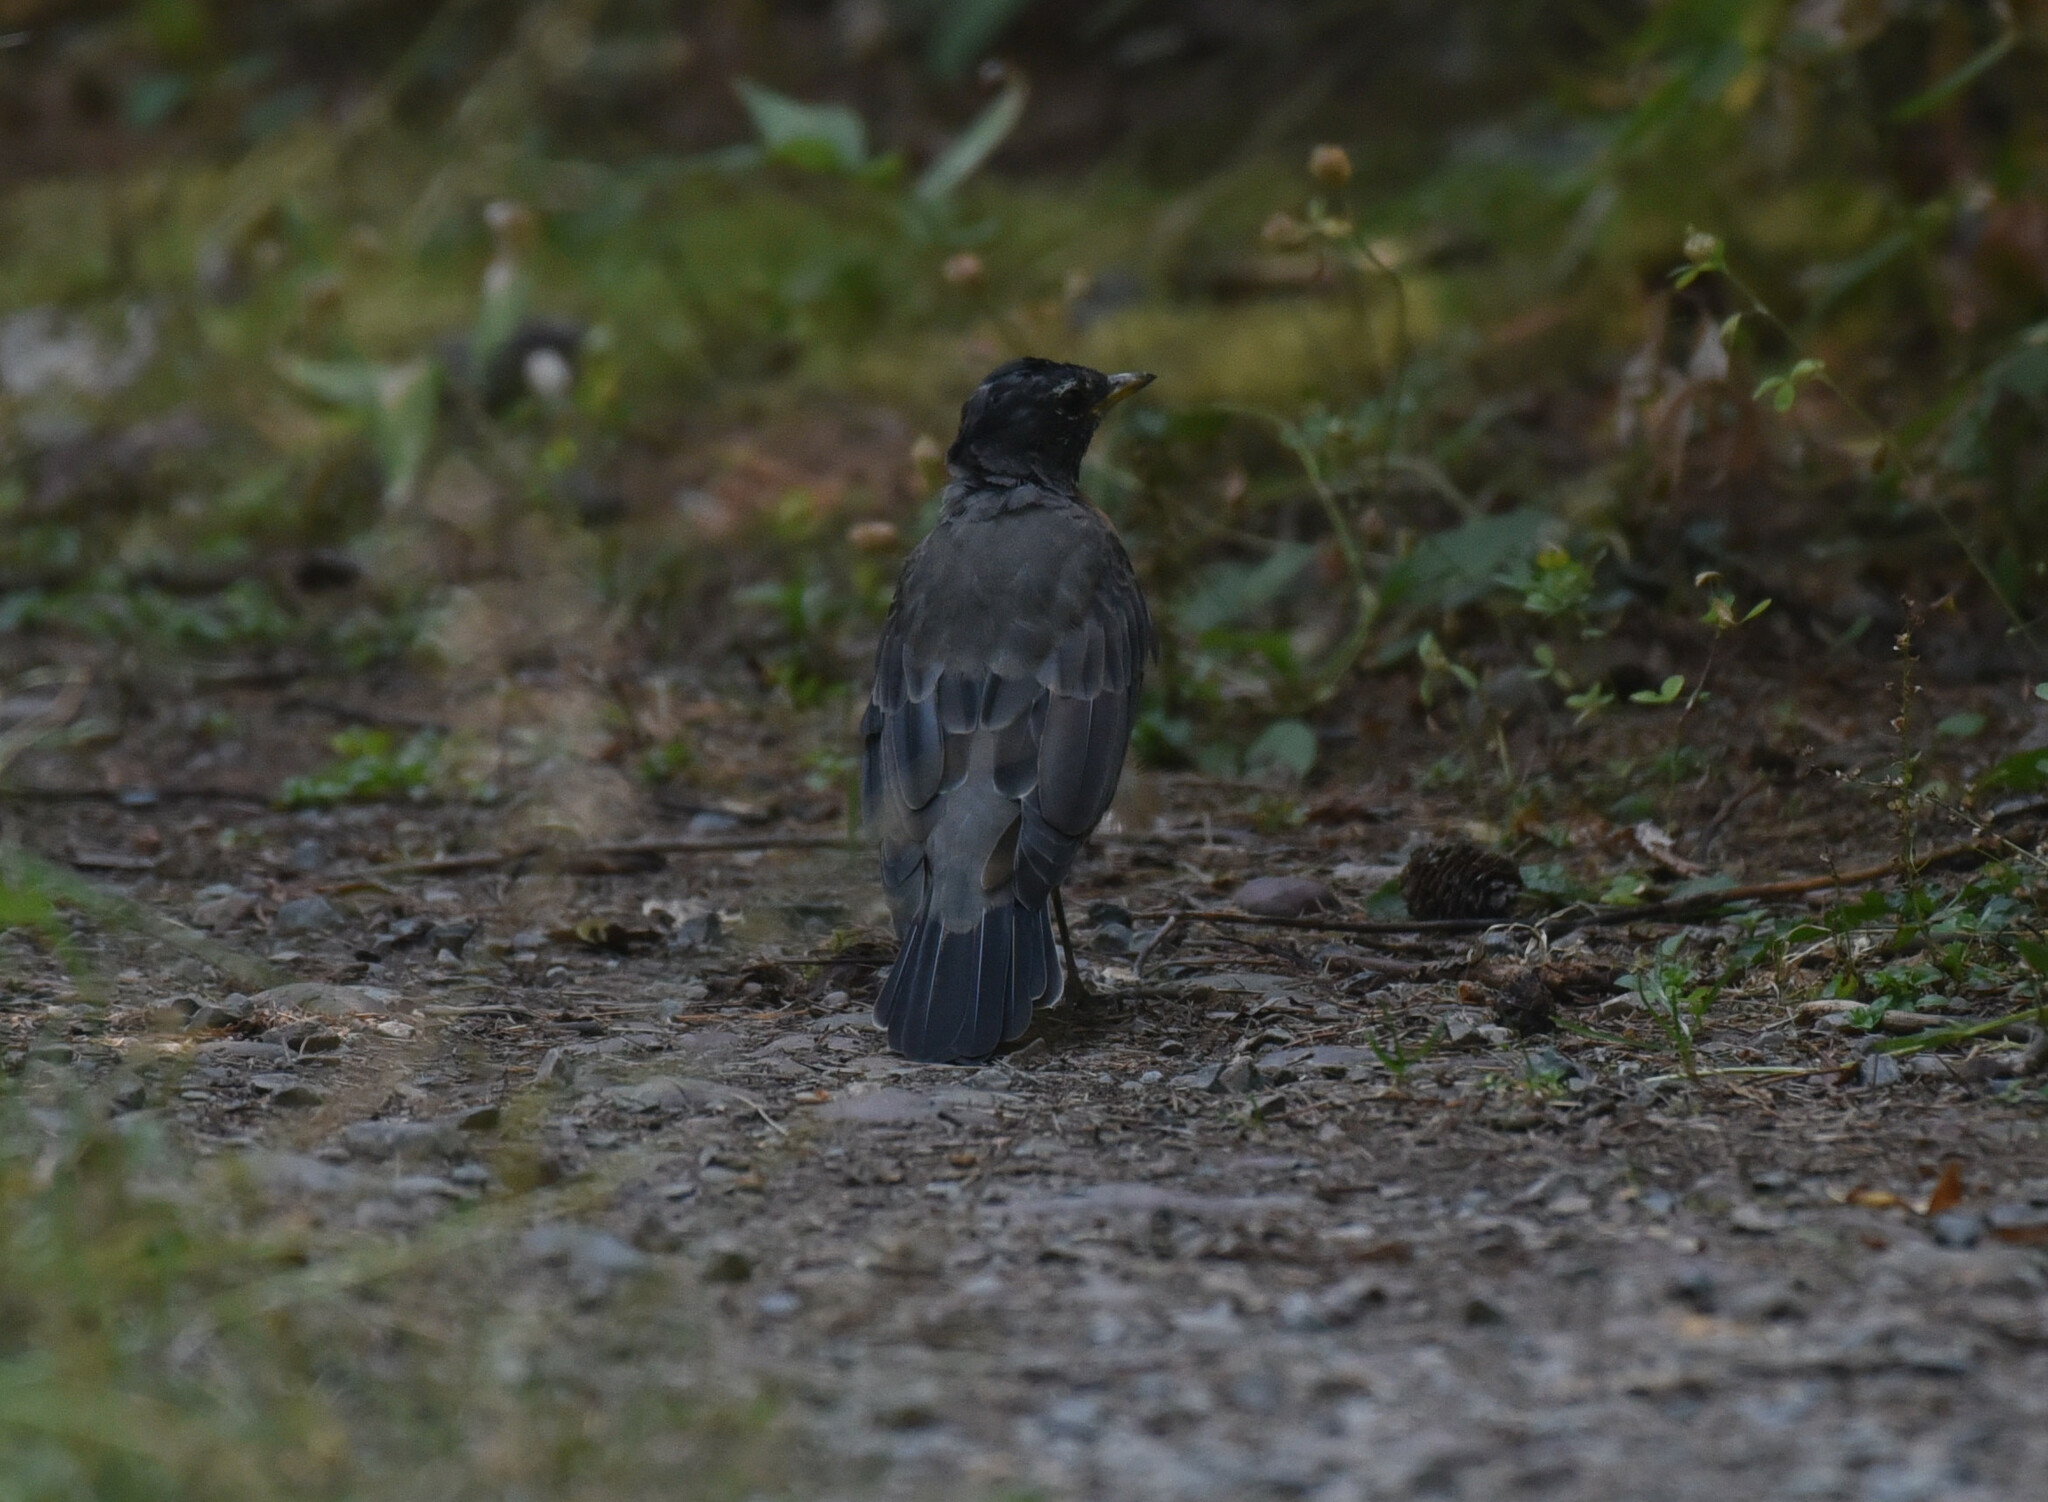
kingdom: Animalia
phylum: Chordata
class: Aves
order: Passeriformes
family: Turdidae
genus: Turdus
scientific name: Turdus migratorius
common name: American robin
